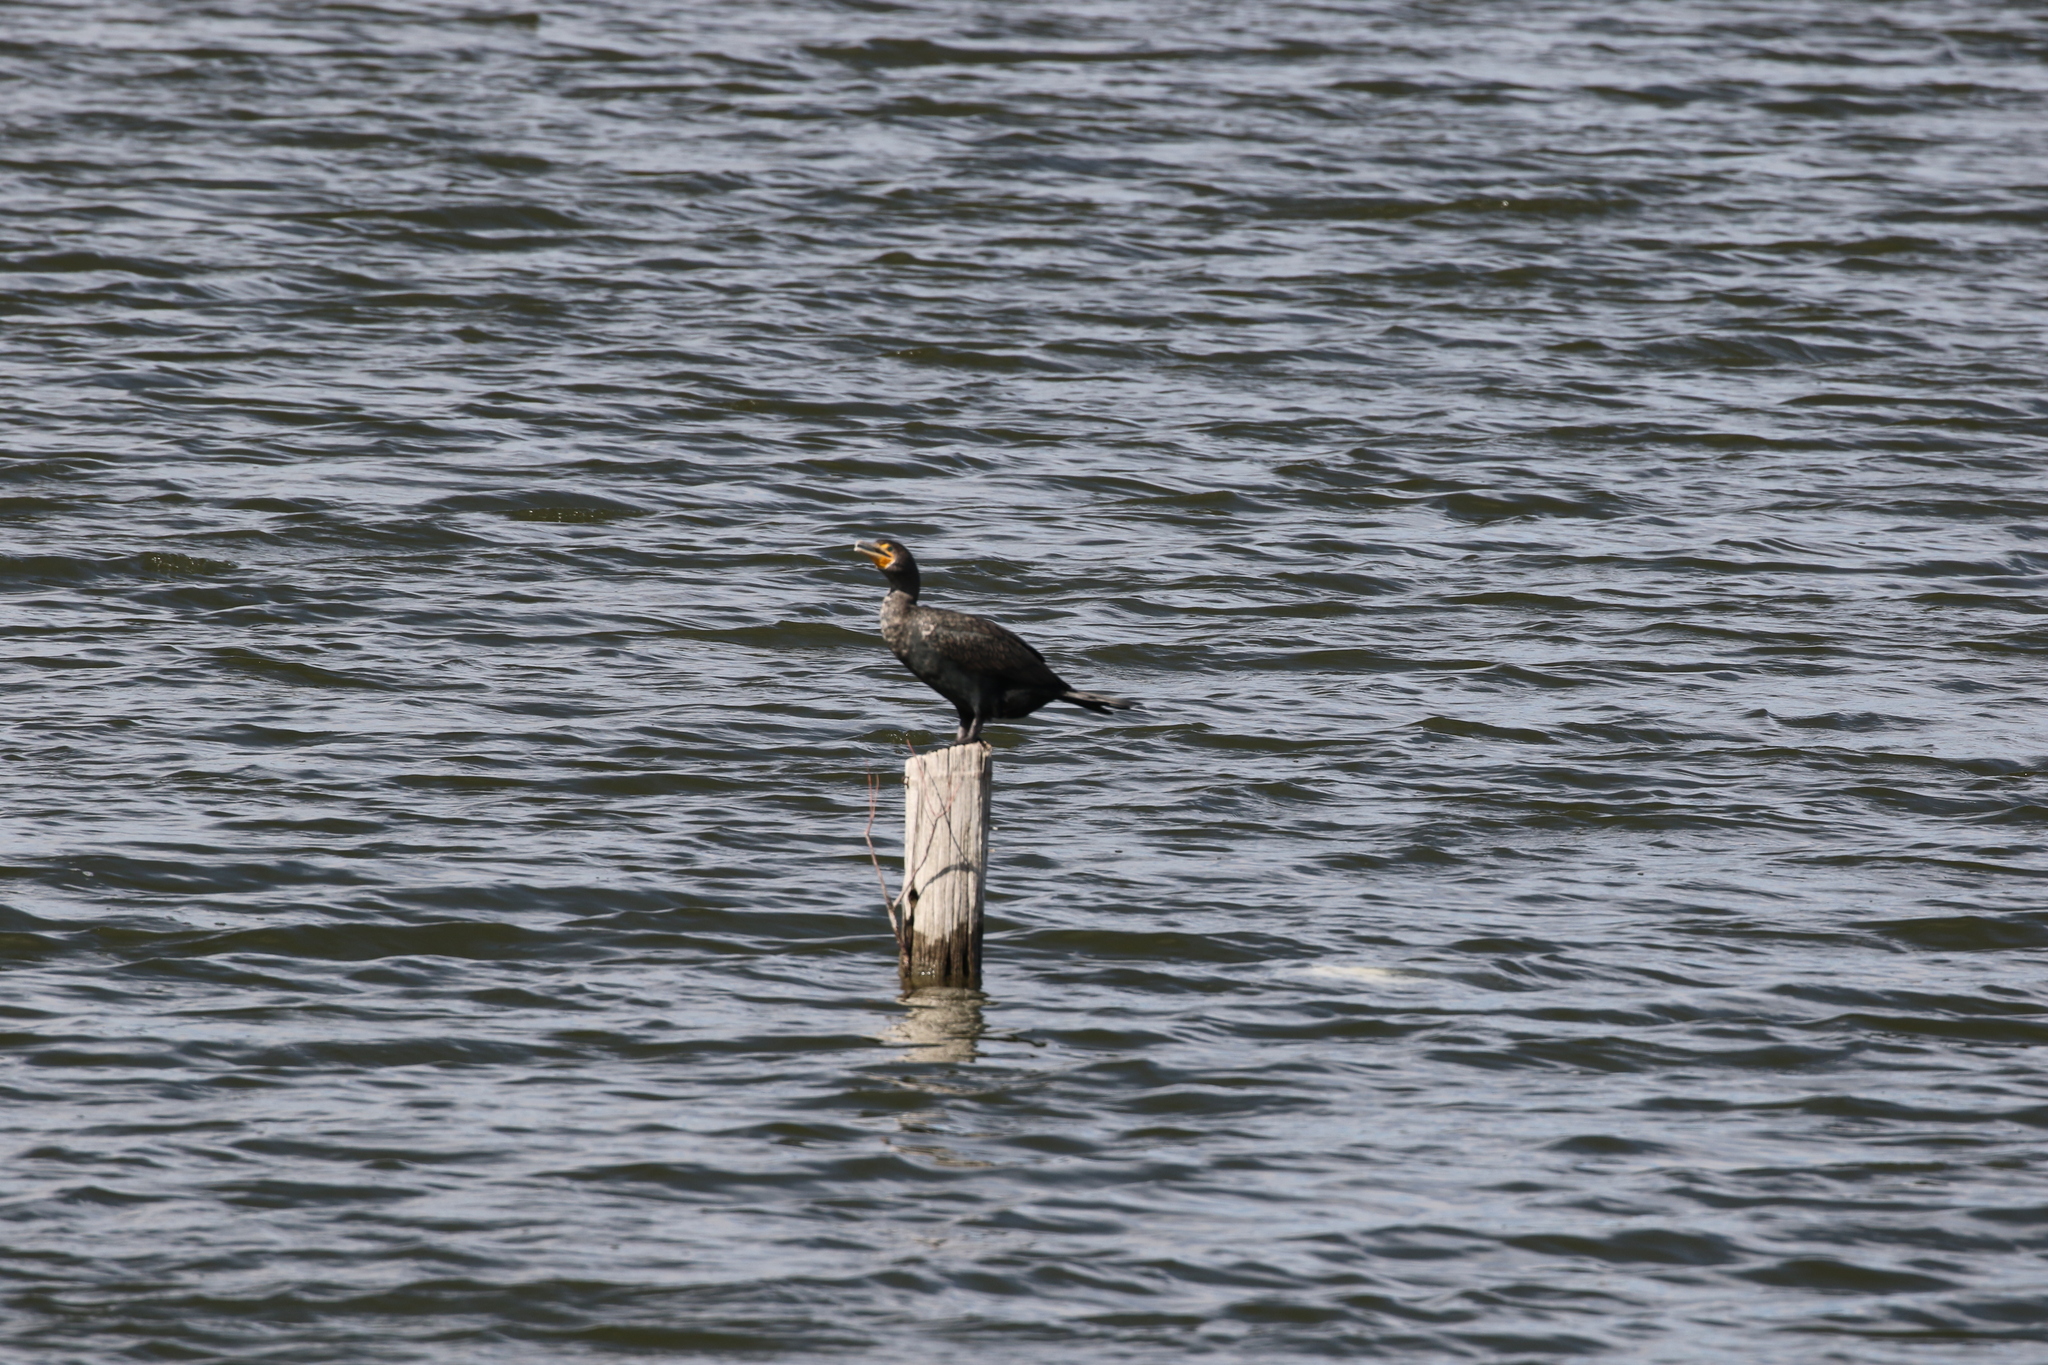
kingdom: Animalia
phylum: Chordata
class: Aves
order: Suliformes
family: Phalacrocoracidae
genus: Phalacrocorax
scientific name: Phalacrocorax auritus
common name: Double-crested cormorant
